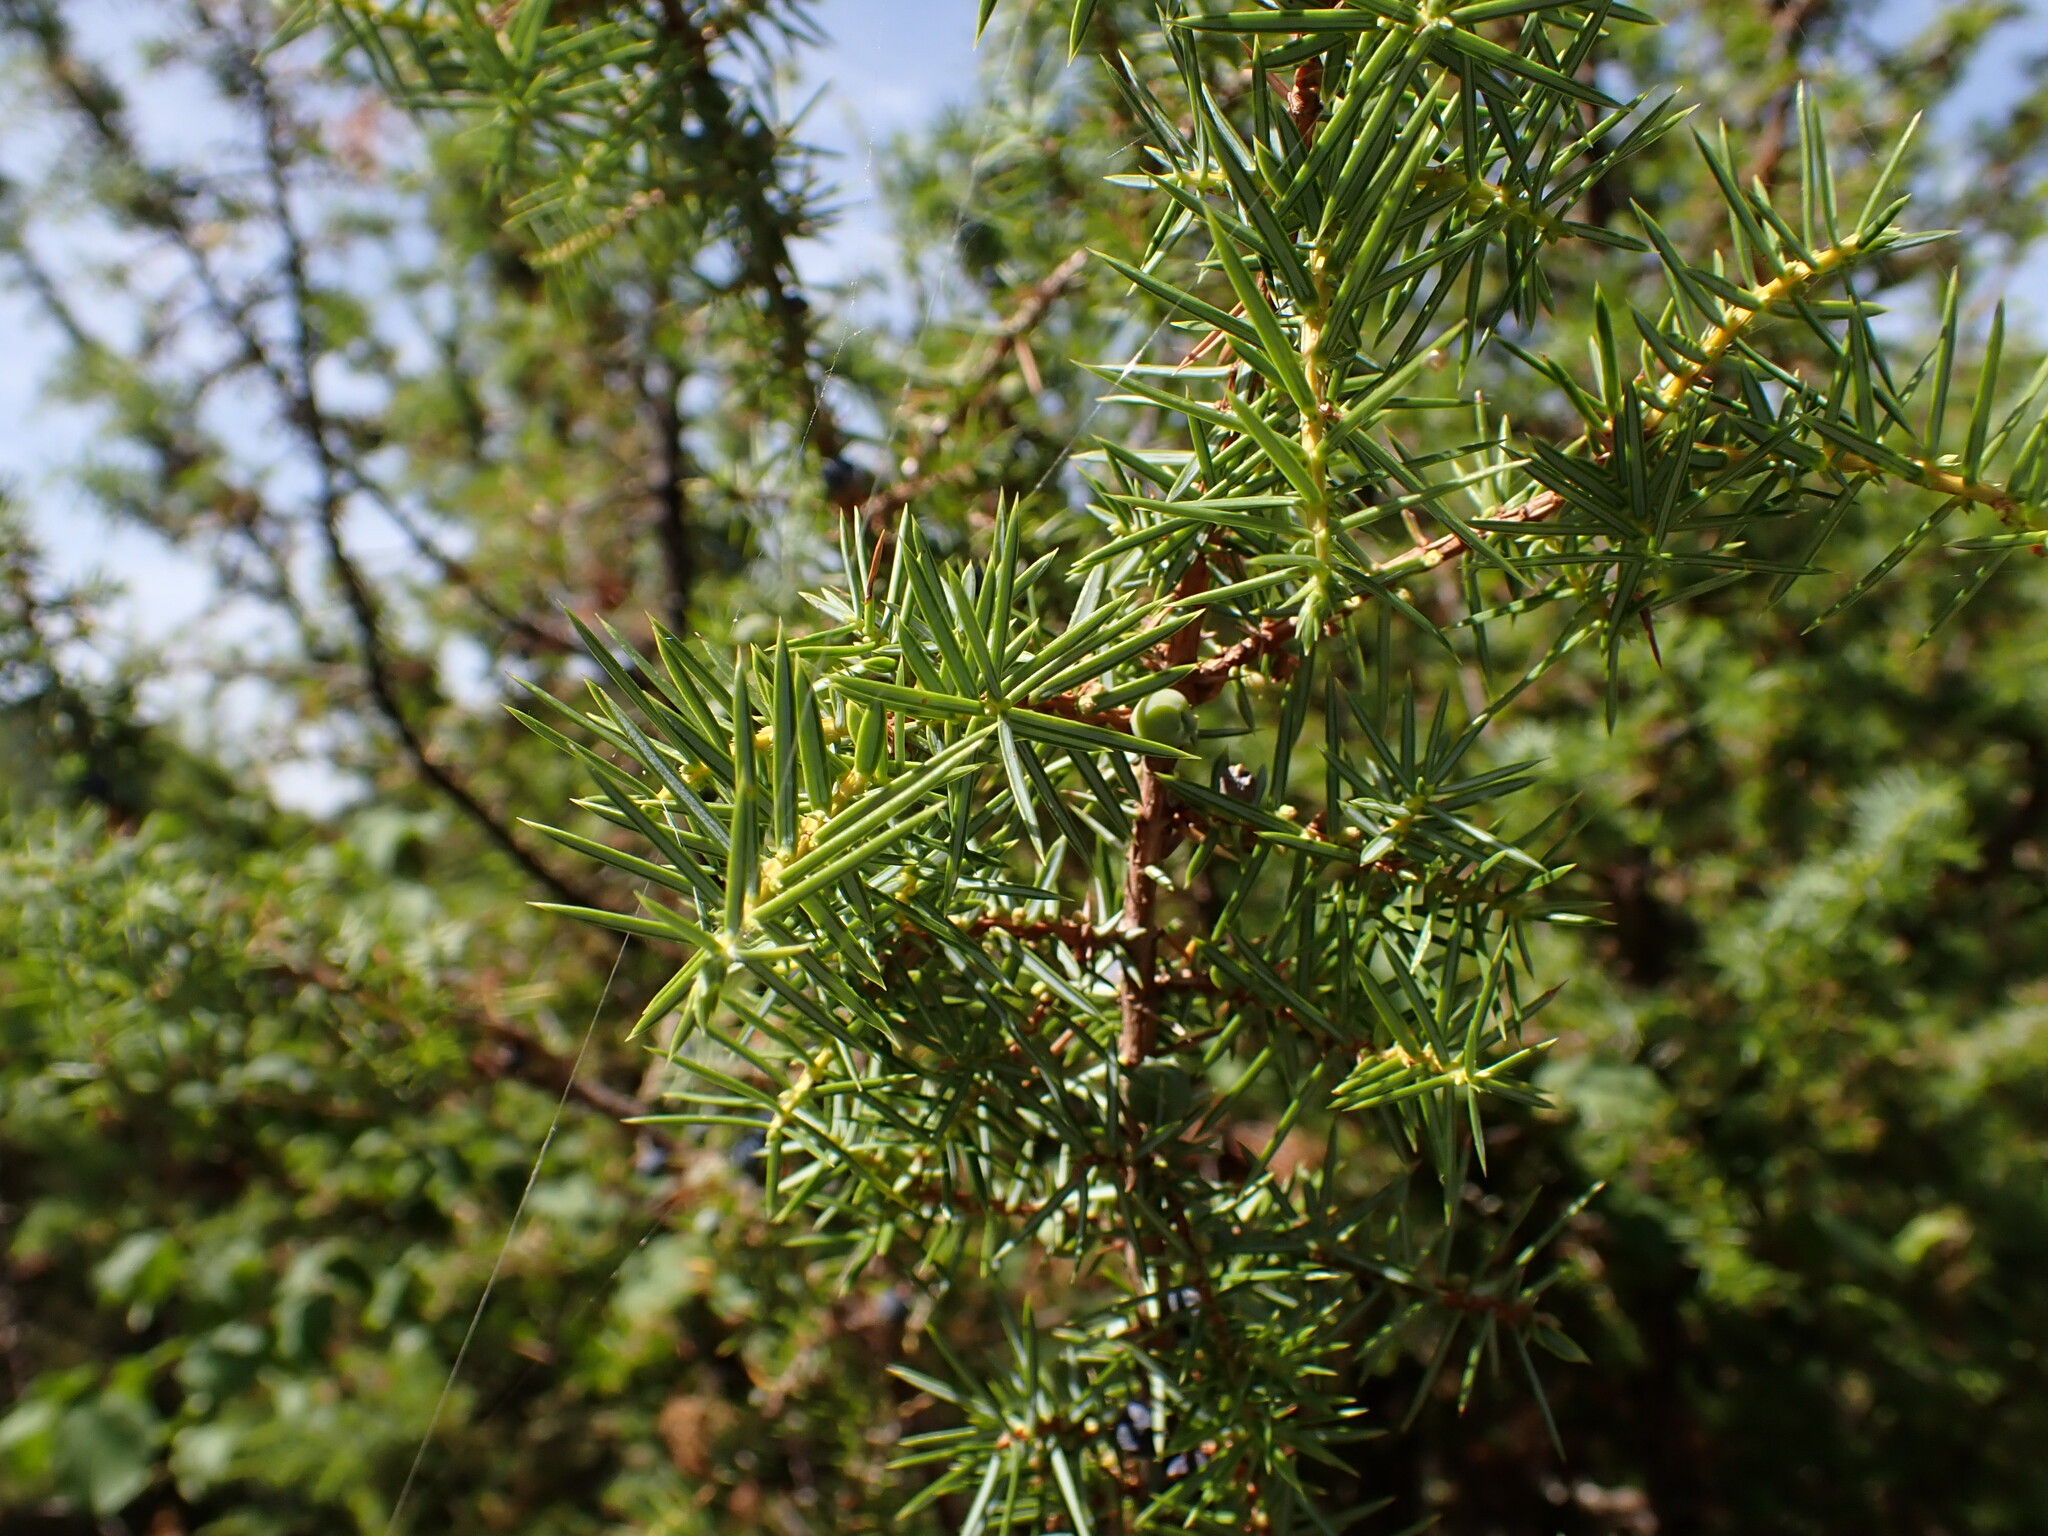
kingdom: Plantae
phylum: Tracheophyta
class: Pinopsida
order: Pinales
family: Cupressaceae
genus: Juniperus
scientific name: Juniperus communis
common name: Common juniper
